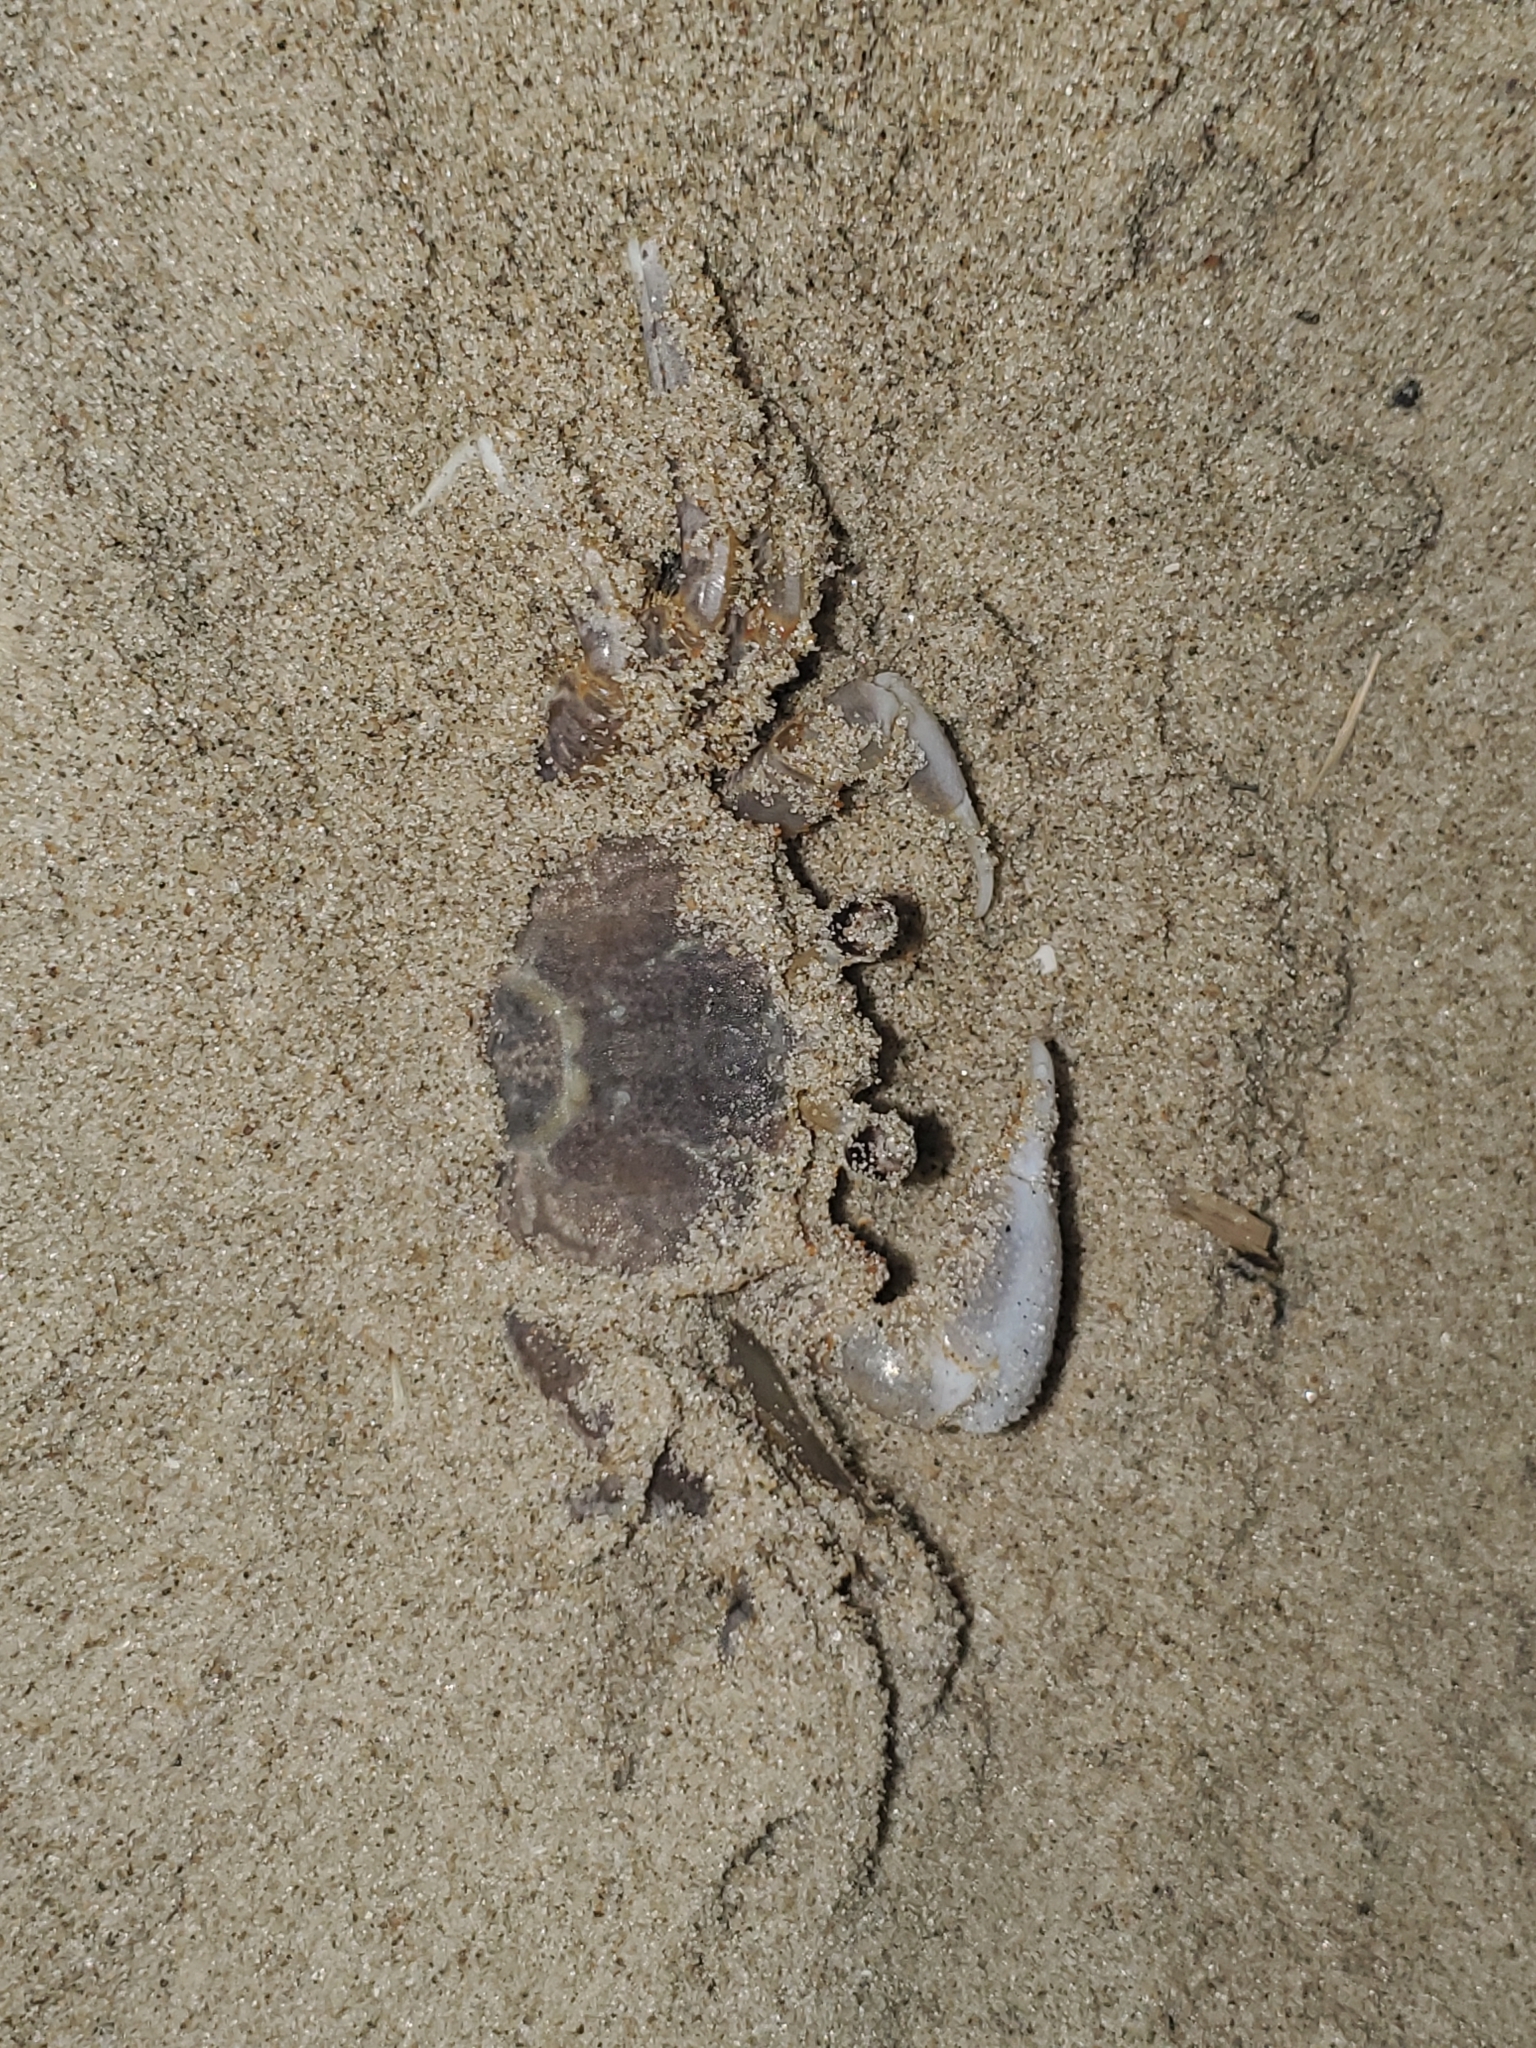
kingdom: Animalia
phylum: Arthropoda
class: Malacostraca
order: Decapoda
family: Ocypodidae
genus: Ocypode
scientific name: Ocypode quadrata
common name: Ghost crab
